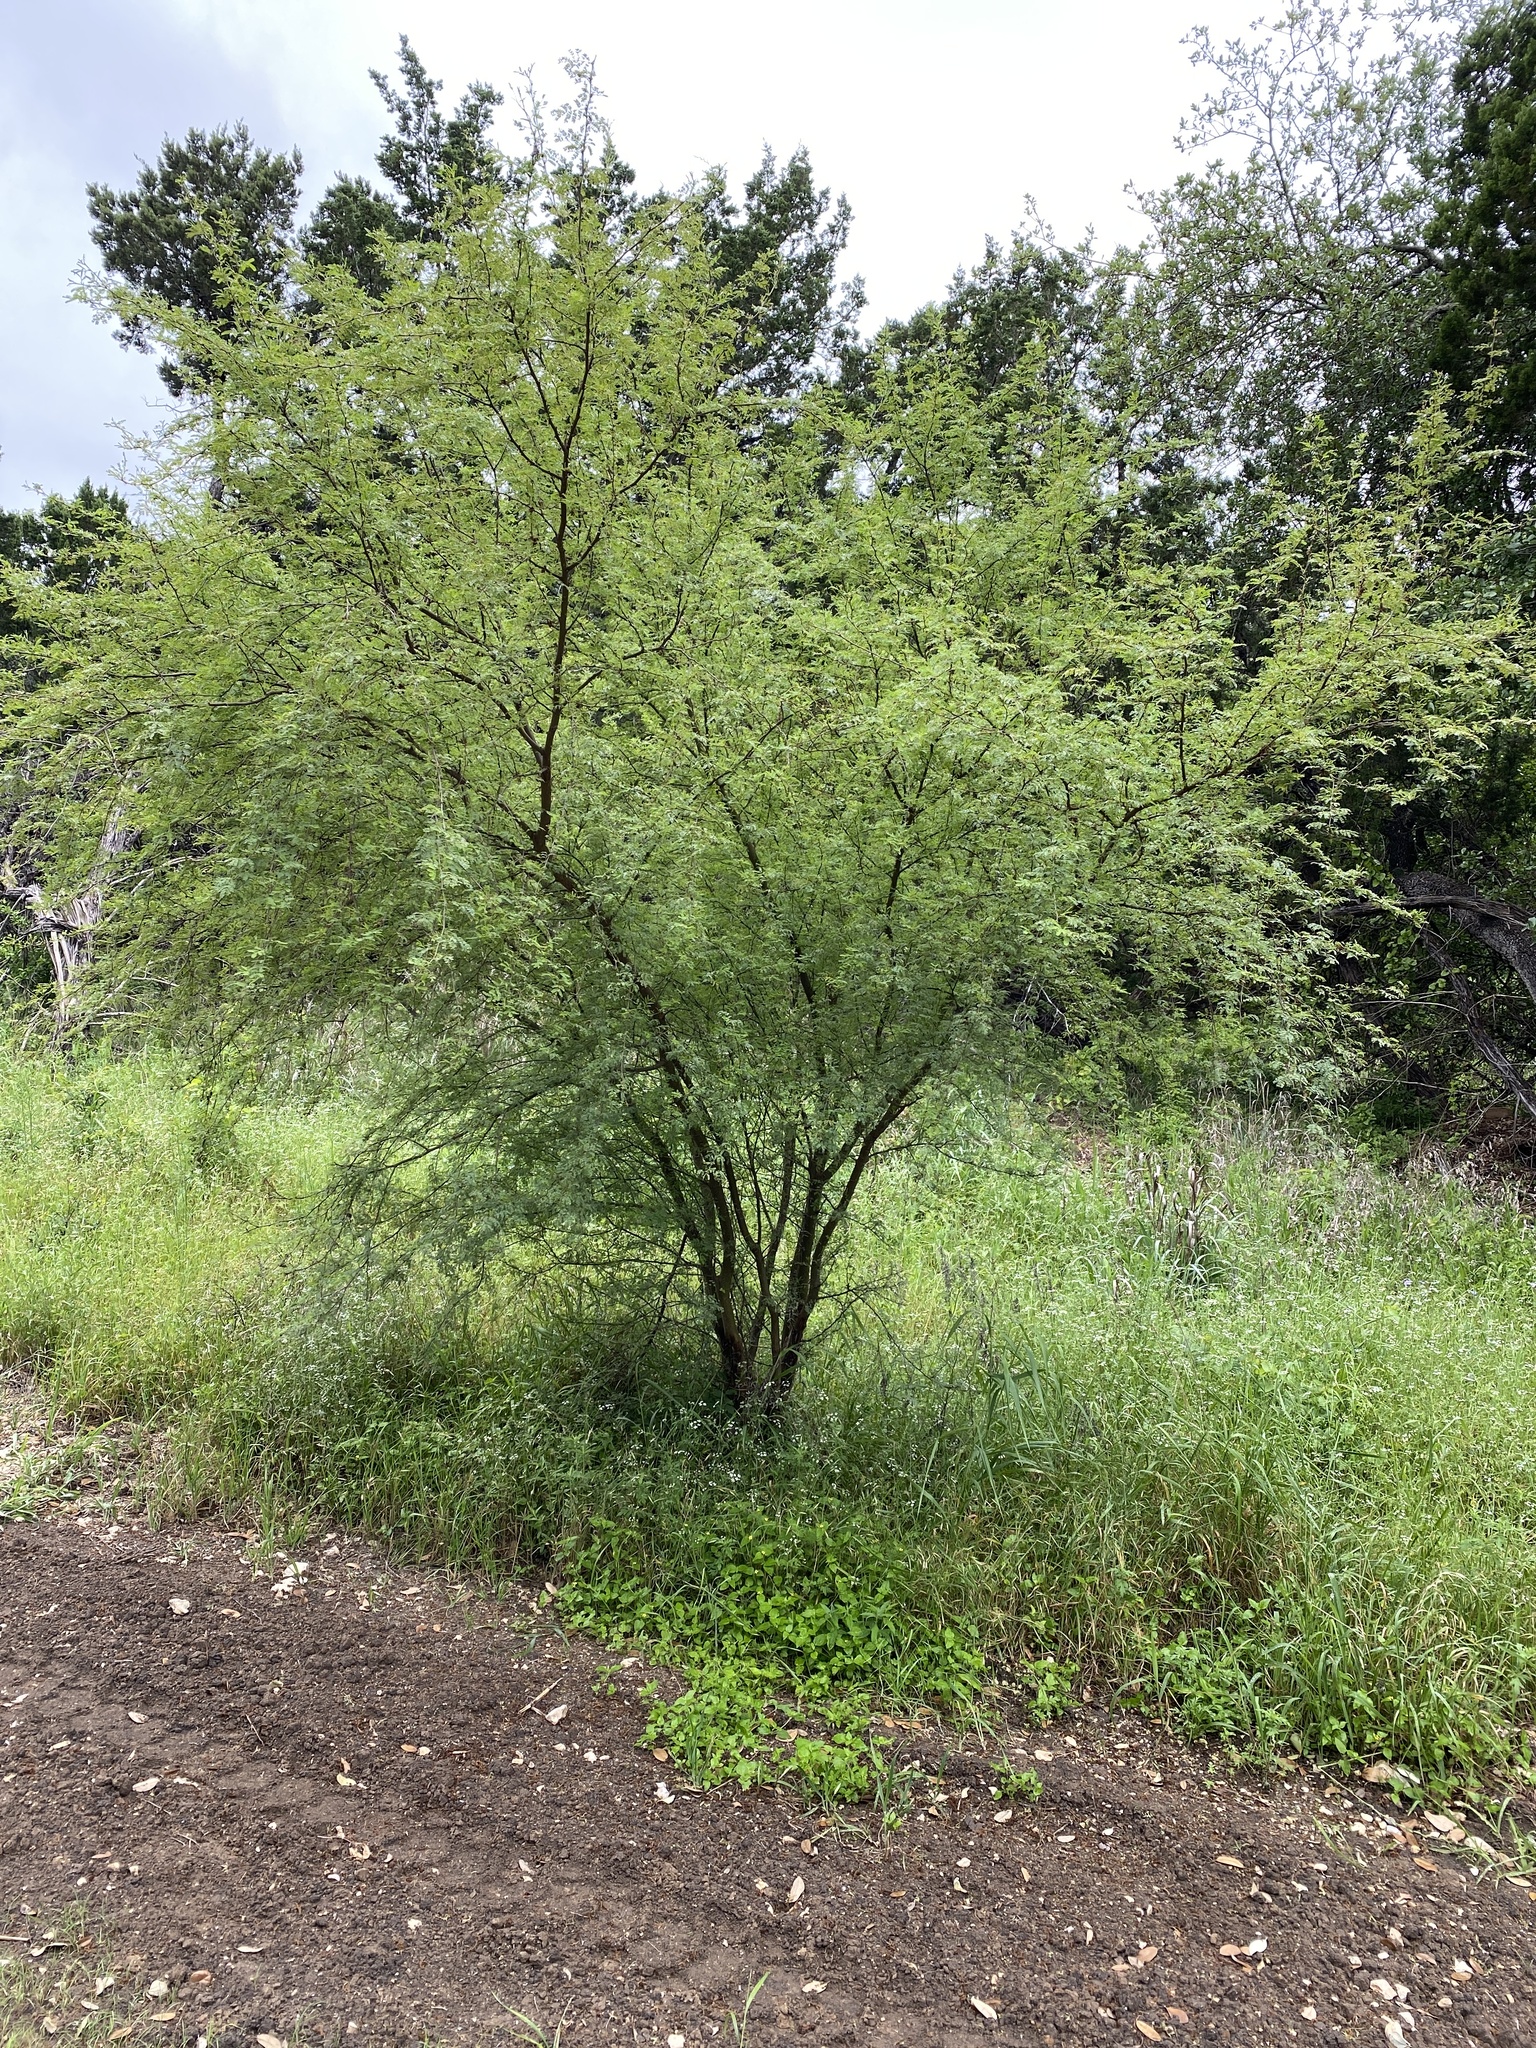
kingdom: Plantae
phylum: Tracheophyta
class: Magnoliopsida
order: Fabales
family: Fabaceae
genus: Vachellia
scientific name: Vachellia farnesiana
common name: Sweet acacia
